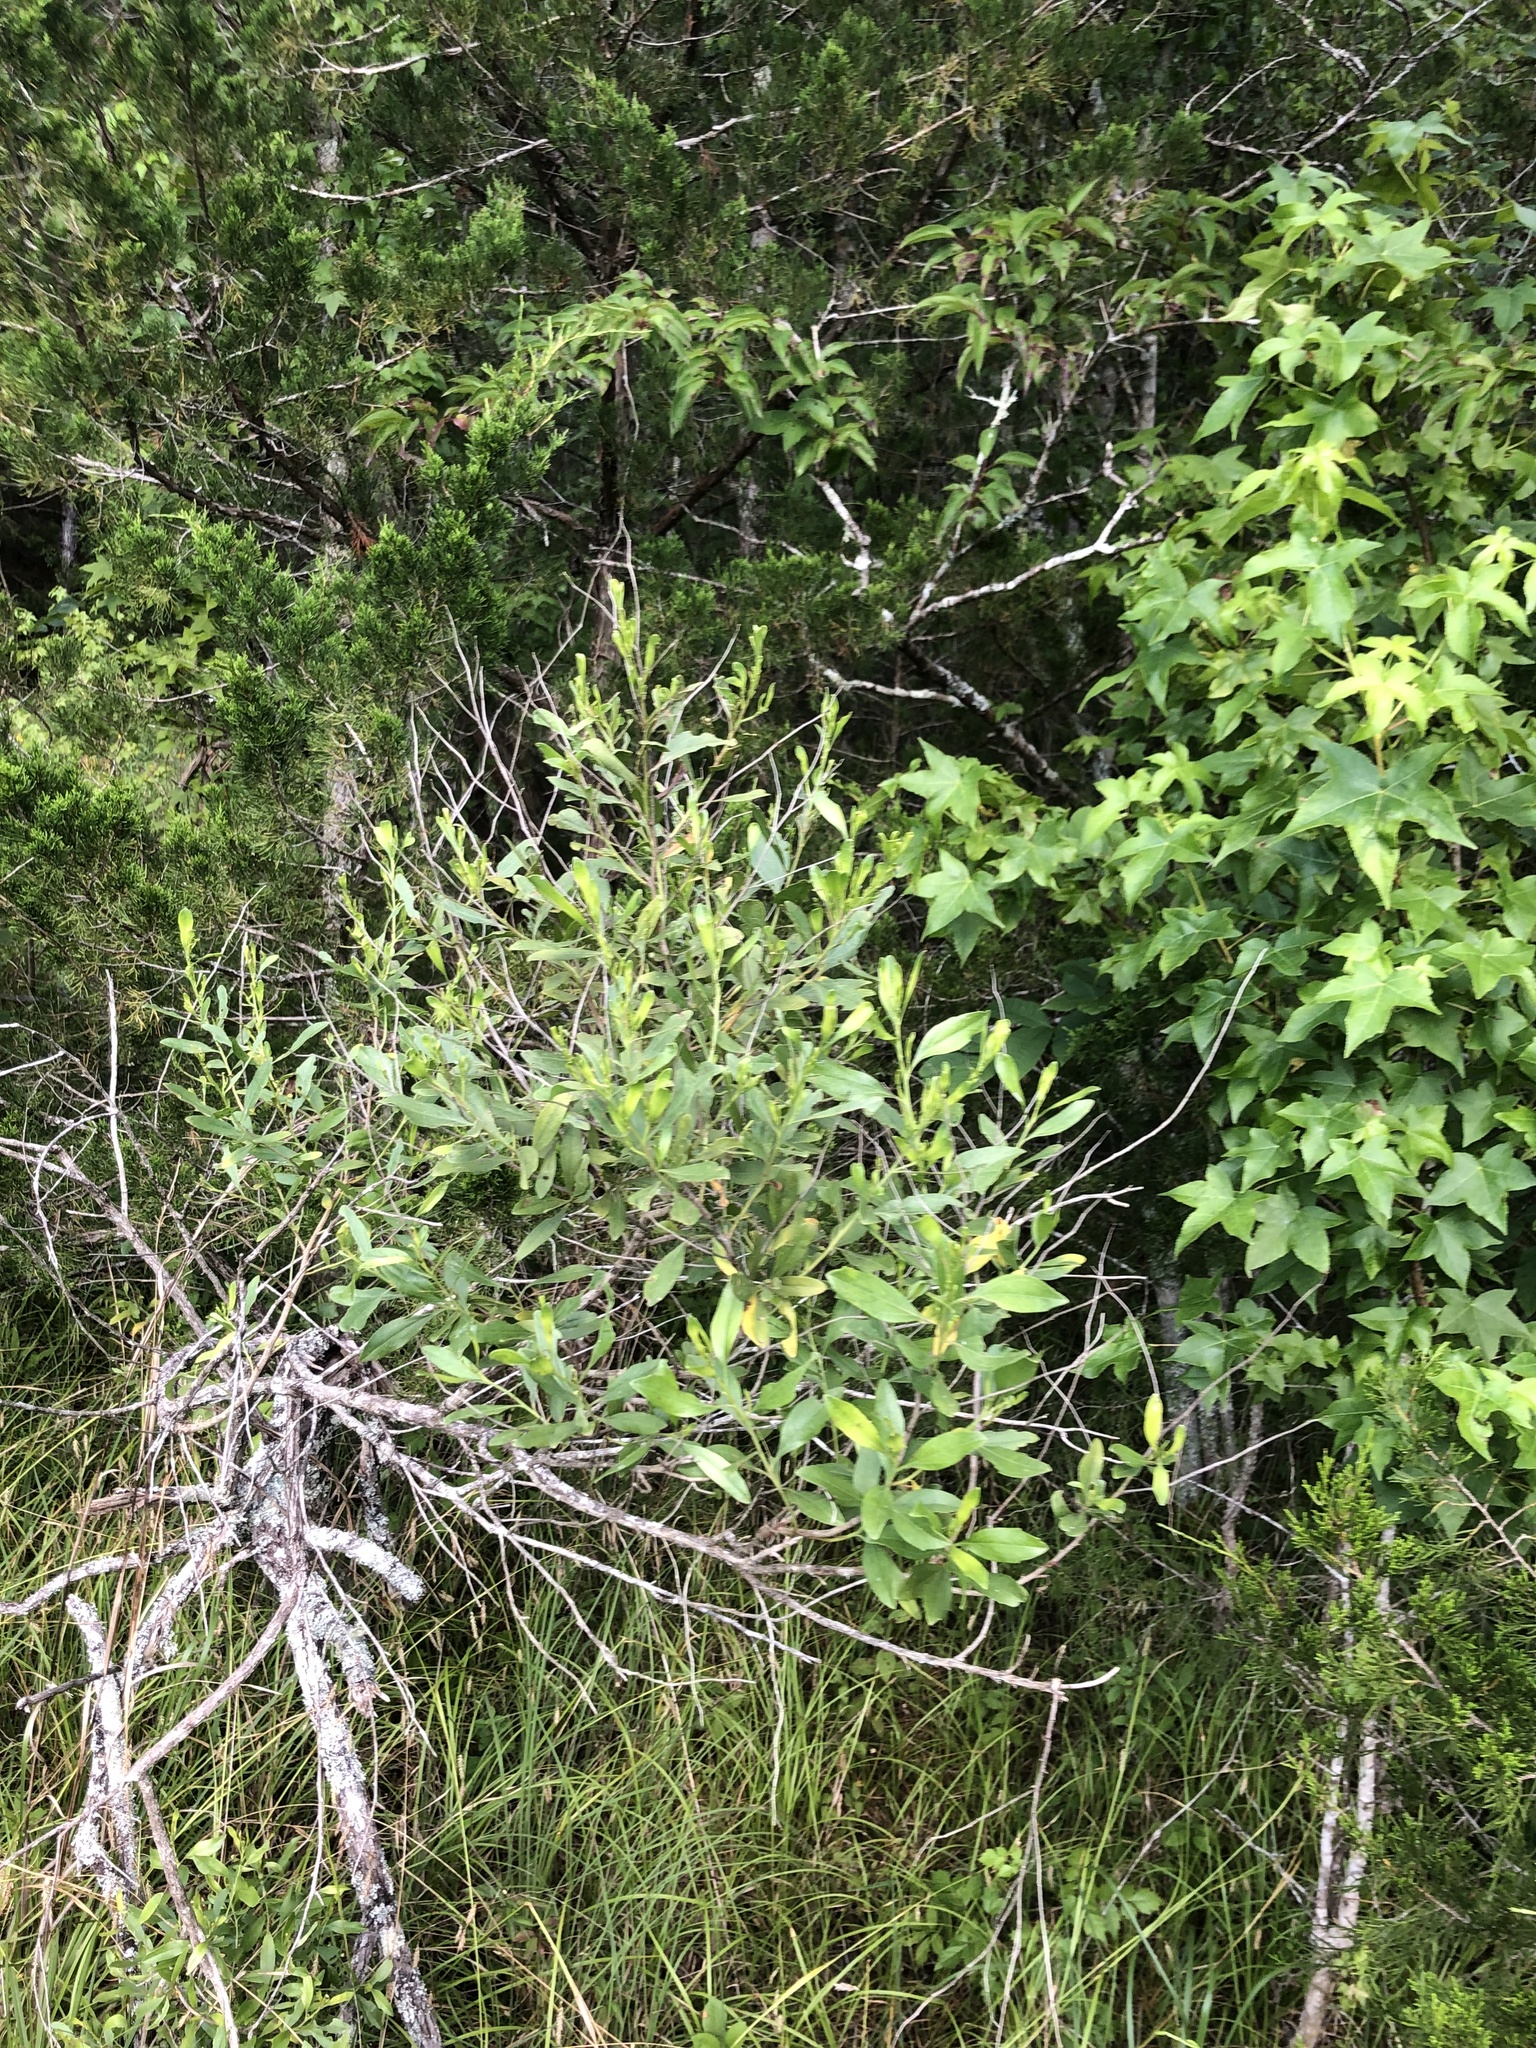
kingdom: Plantae
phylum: Tracheophyta
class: Magnoliopsida
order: Asterales
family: Asteraceae
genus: Baccharis
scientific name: Baccharis halimifolia
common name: Eastern baccharis
